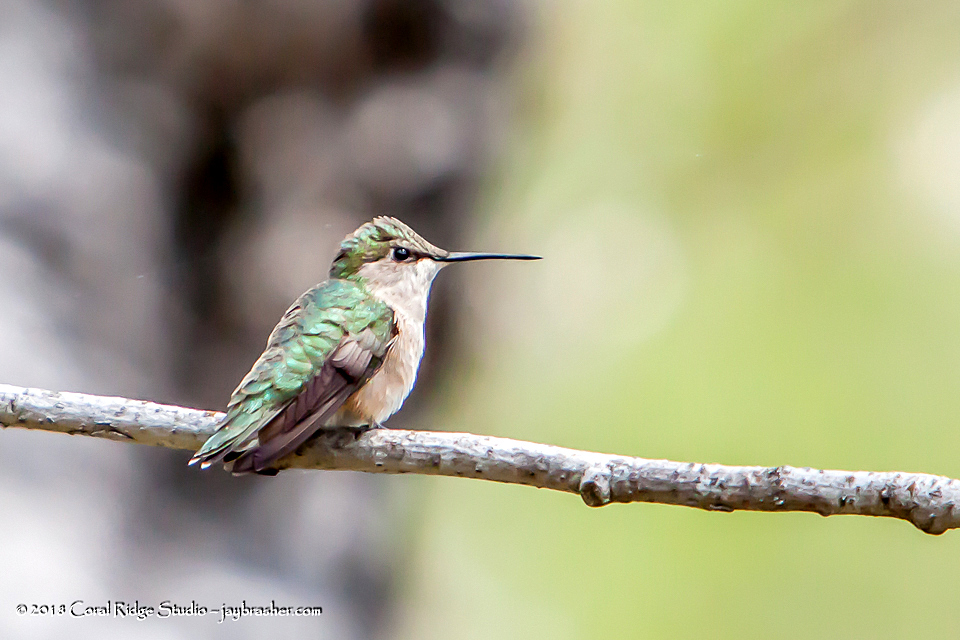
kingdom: Animalia
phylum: Chordata
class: Aves
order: Apodiformes
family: Trochilidae
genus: Archilochus
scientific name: Archilochus colubris
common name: Ruby-throated hummingbird
